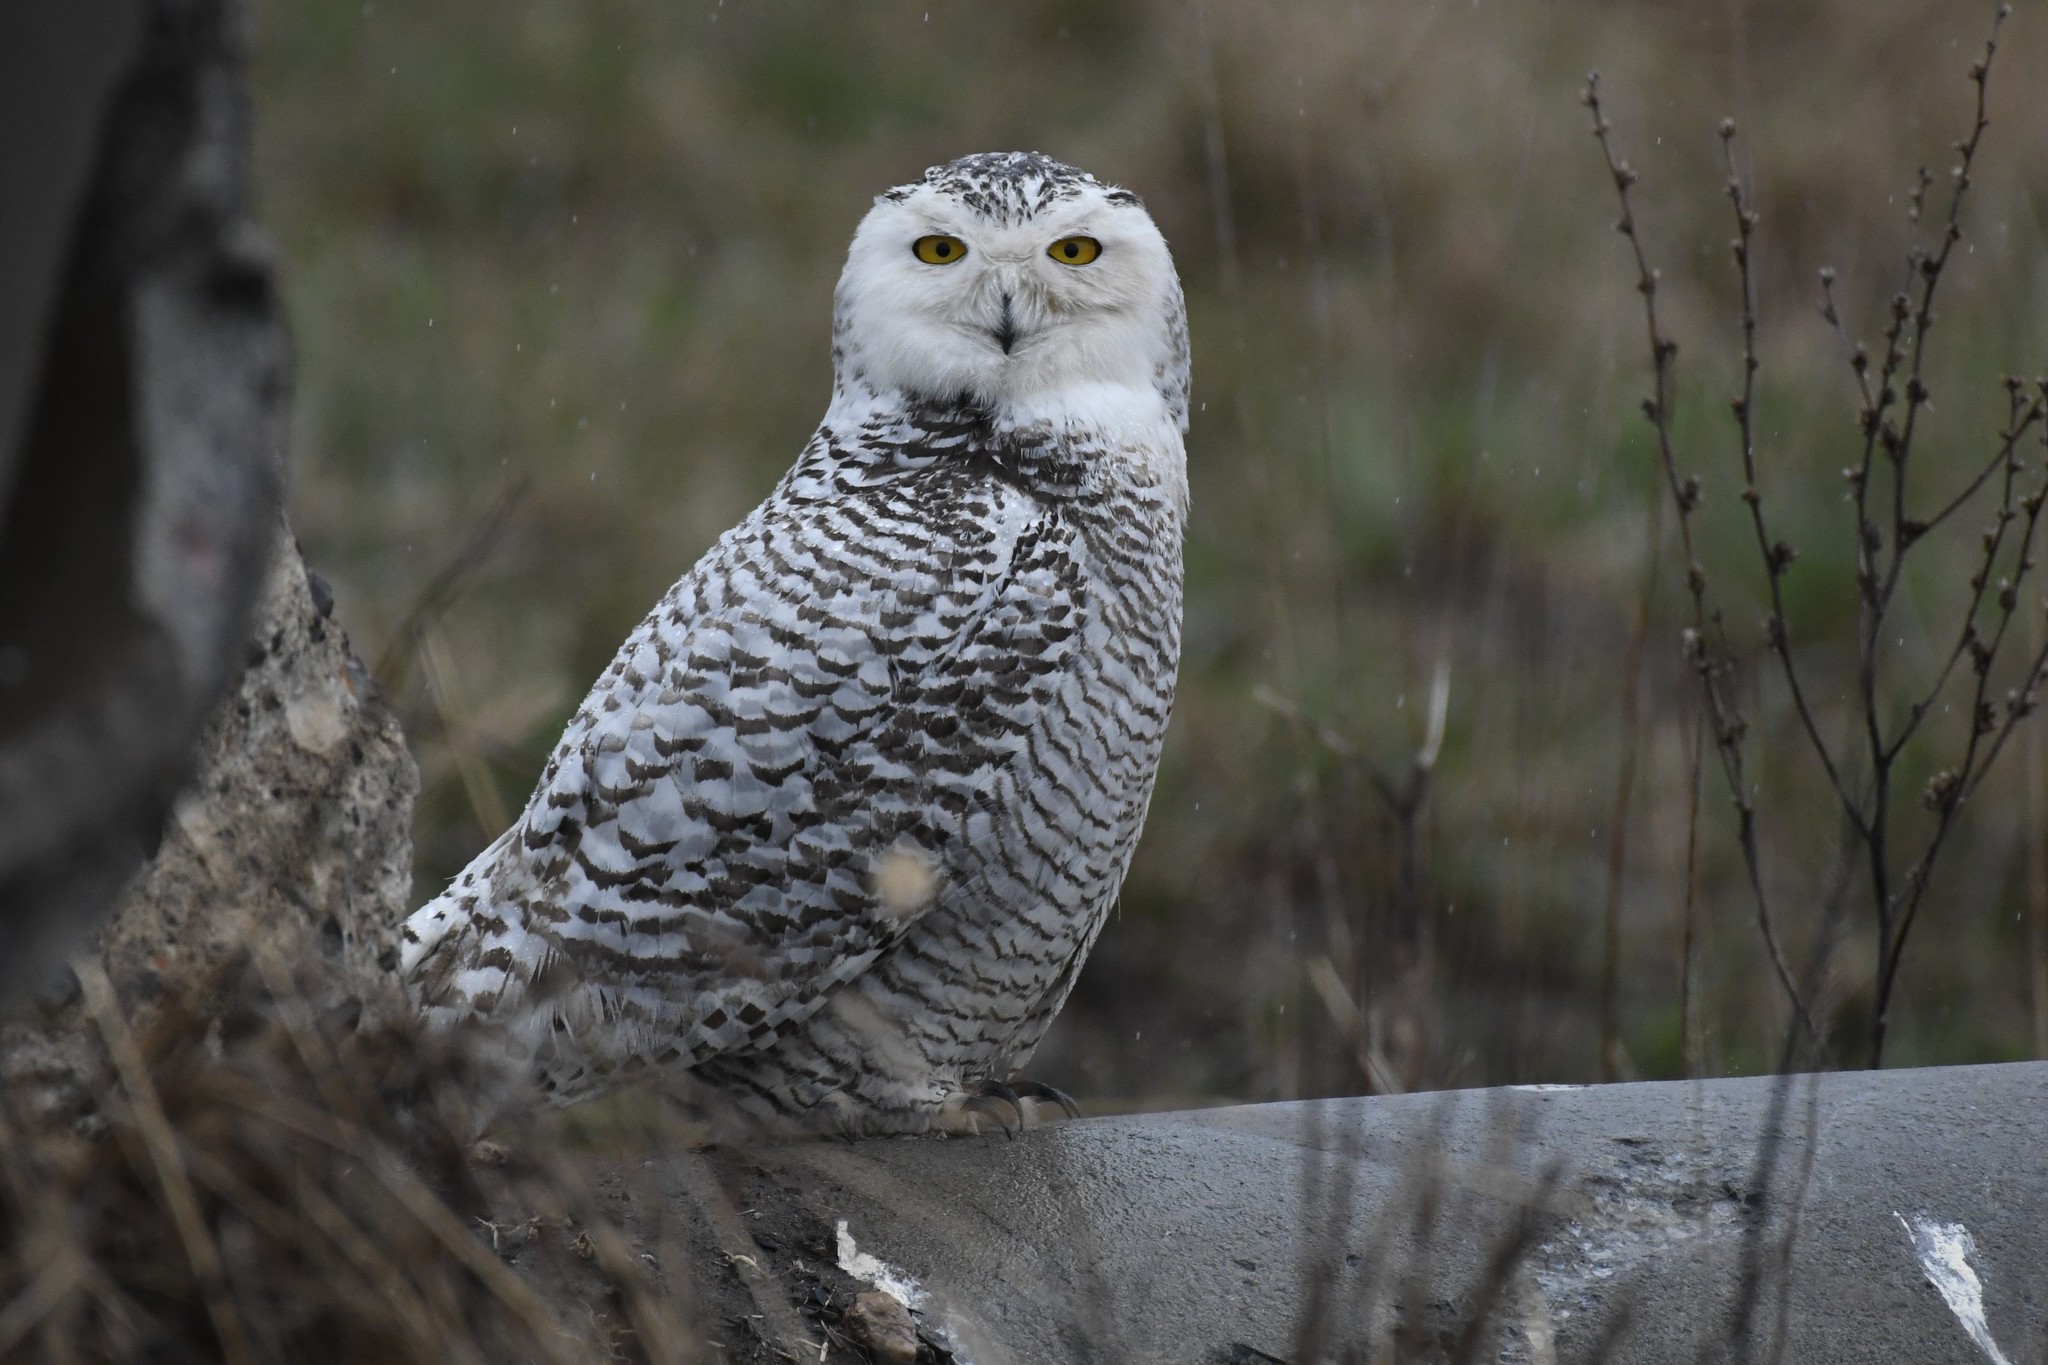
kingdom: Animalia
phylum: Chordata
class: Aves
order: Strigiformes
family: Strigidae
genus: Bubo
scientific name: Bubo scandiacus
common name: Snowy owl
